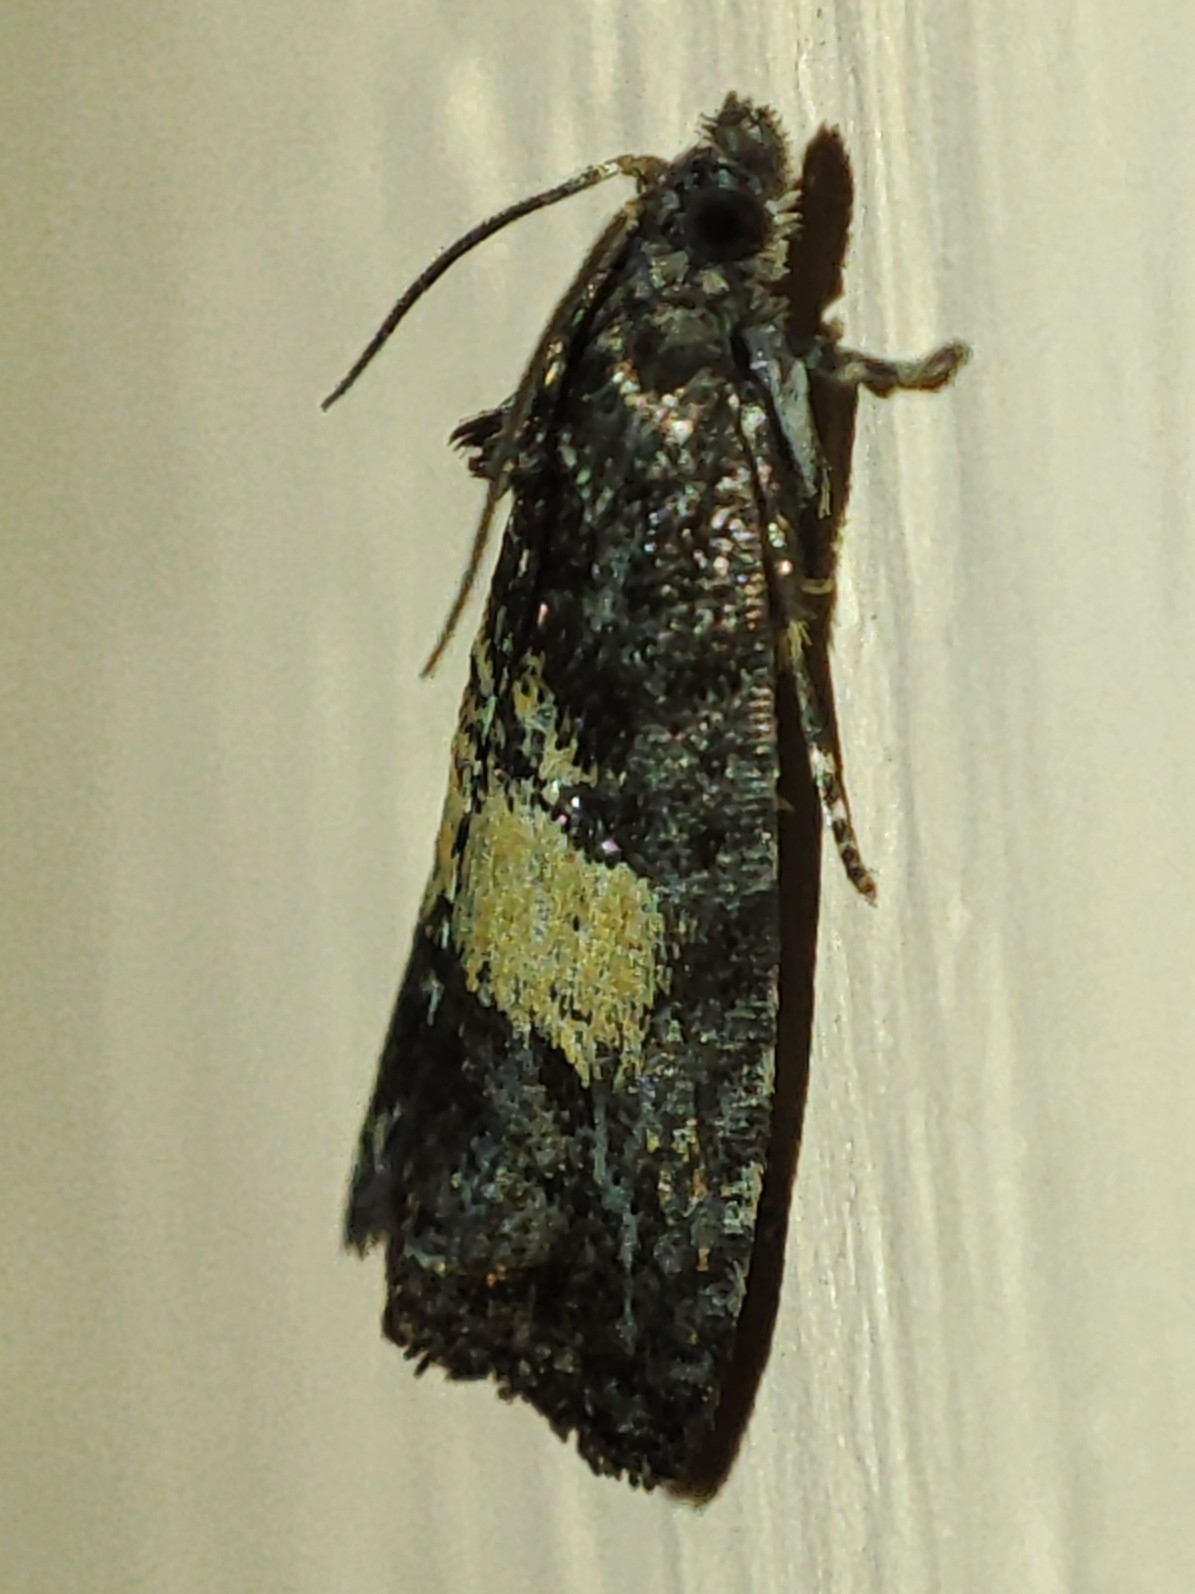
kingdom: Animalia
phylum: Arthropoda
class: Insecta
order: Lepidoptera
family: Tortricidae
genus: Endothenia
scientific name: Endothenia nigricostana
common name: Black-edged marble
